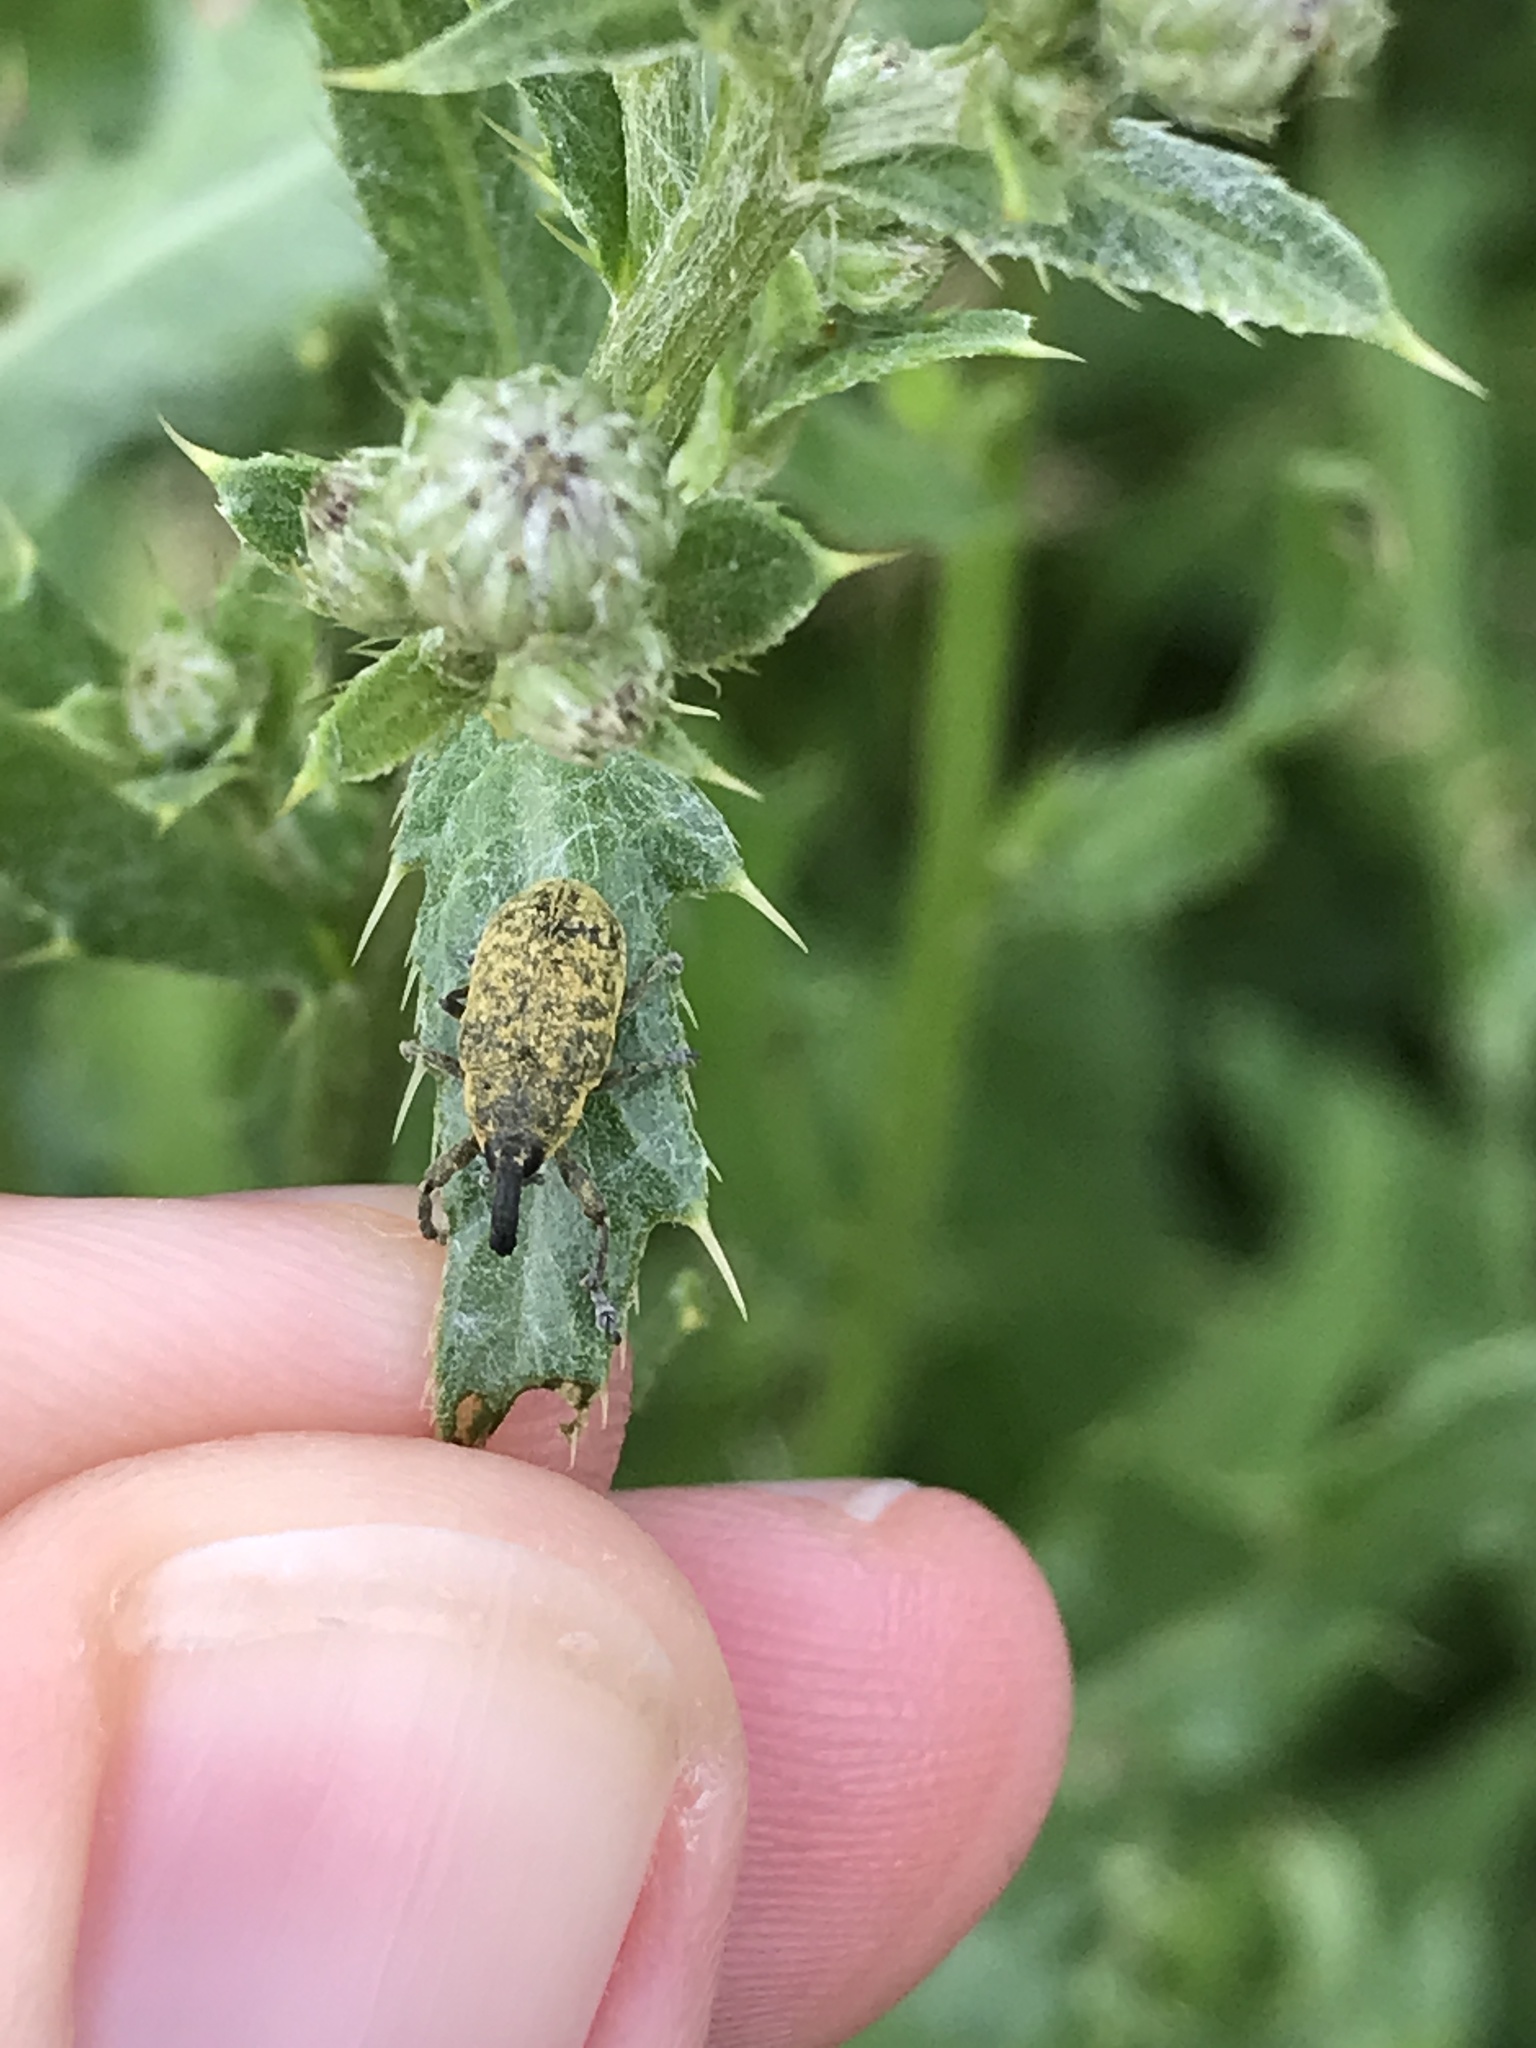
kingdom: Animalia
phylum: Arthropoda
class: Insecta
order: Coleoptera
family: Curculionidae
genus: Larinus
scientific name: Larinus carlinae
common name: Weevil
